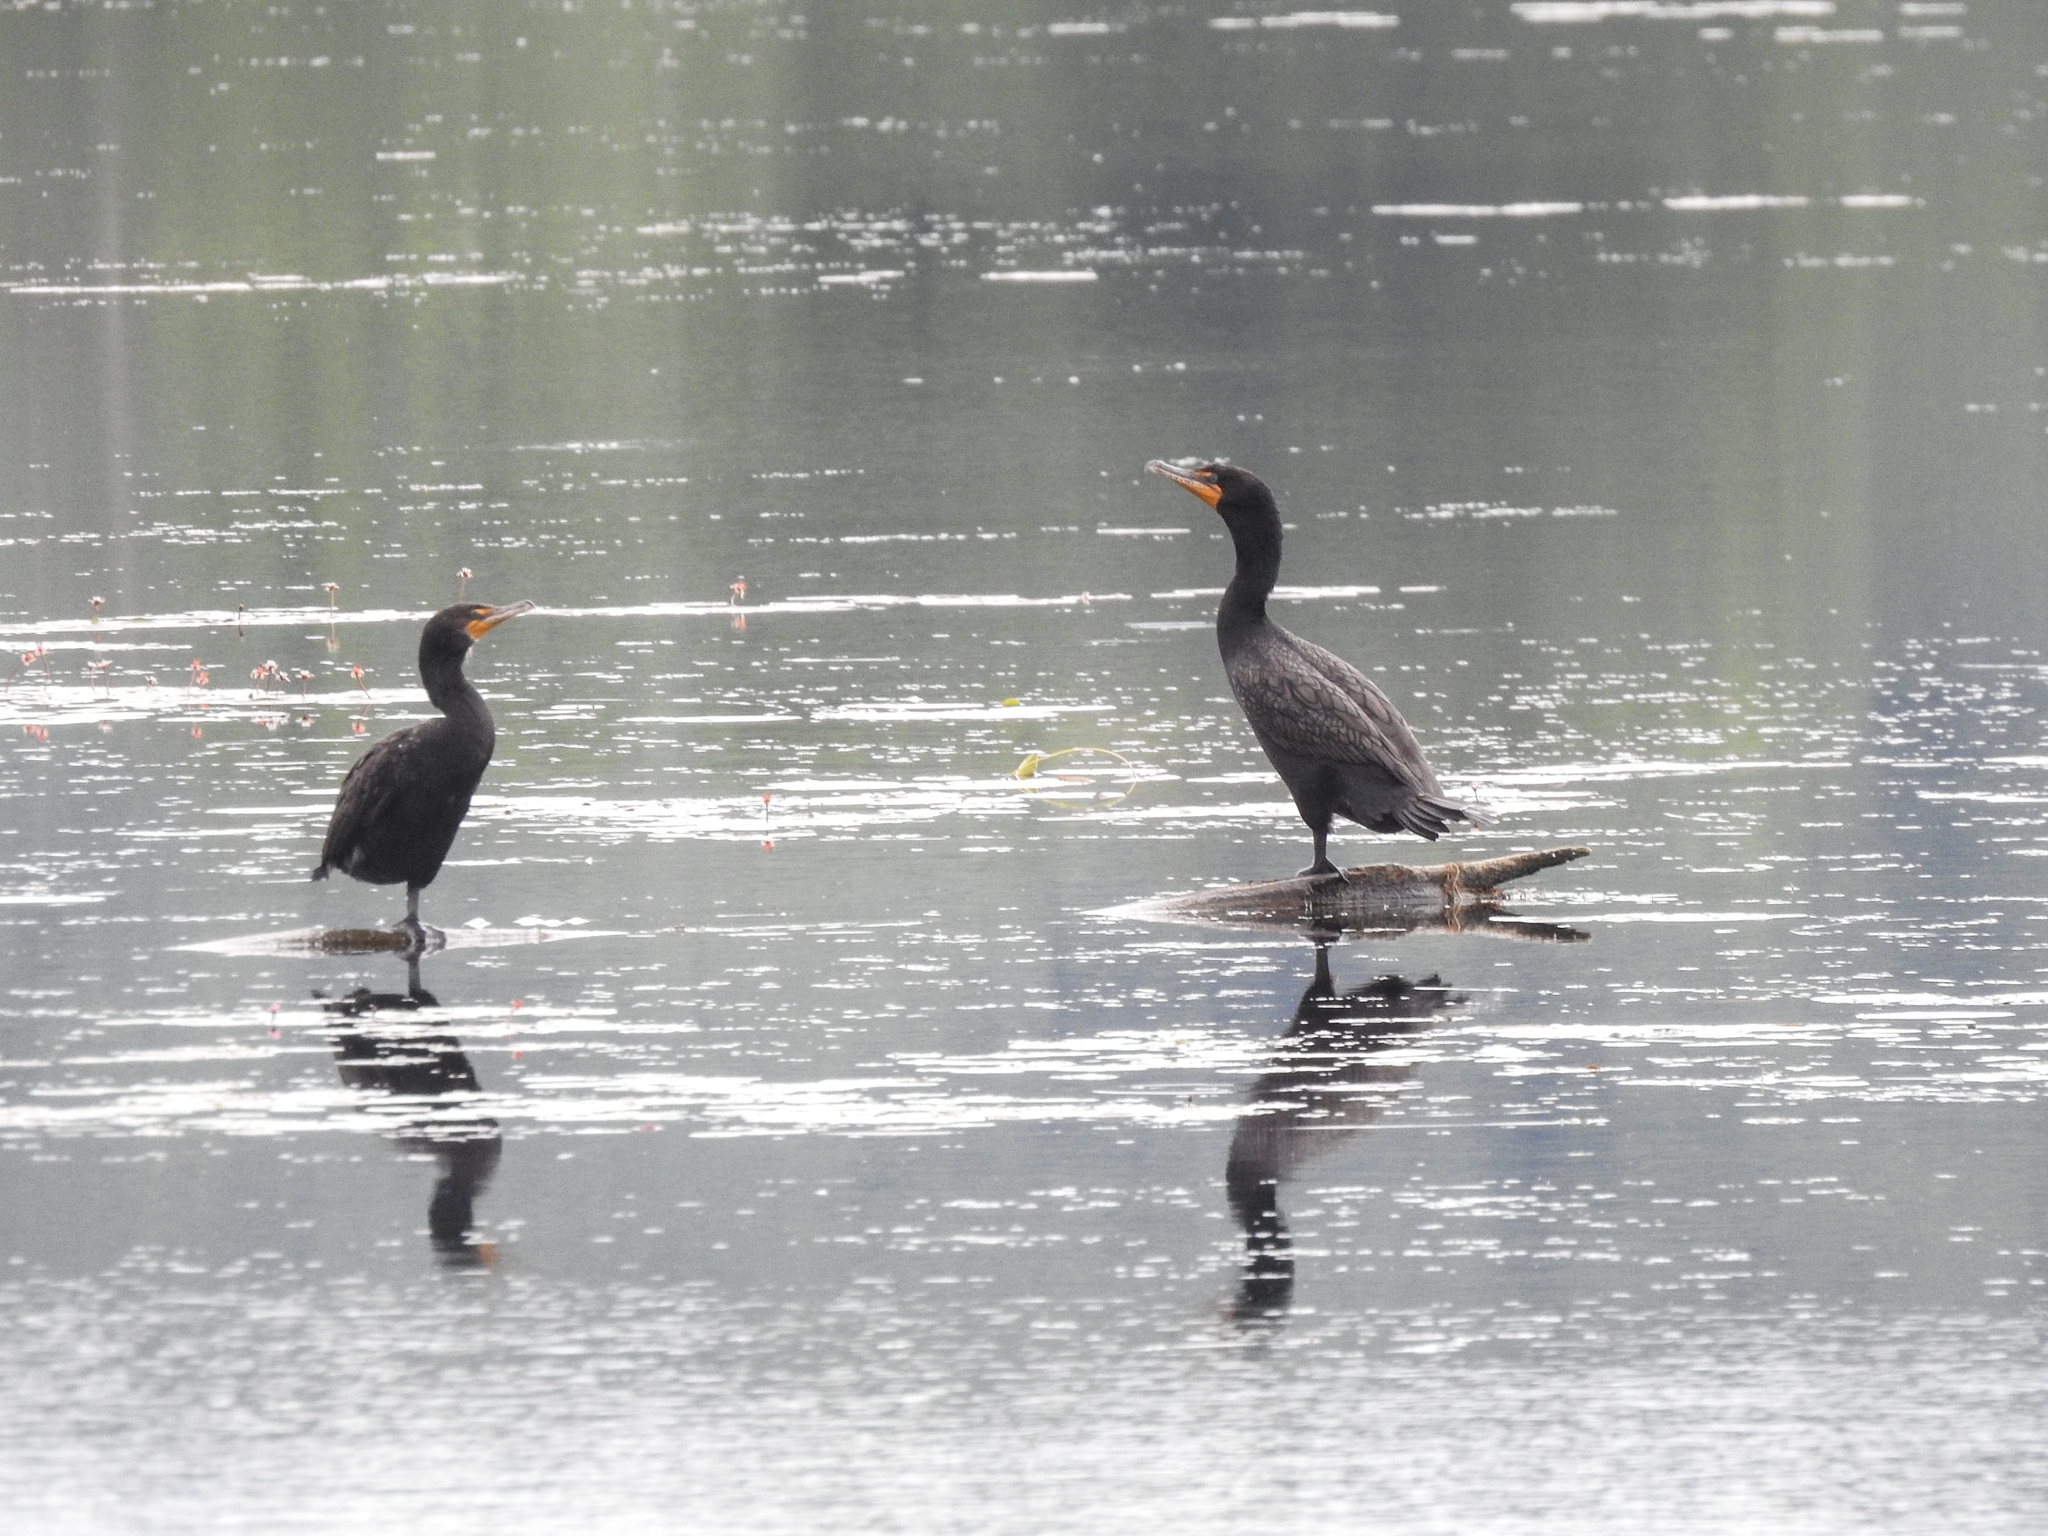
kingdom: Animalia
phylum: Chordata
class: Aves
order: Suliformes
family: Phalacrocoracidae
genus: Phalacrocorax
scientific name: Phalacrocorax auritus
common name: Double-crested cormorant
